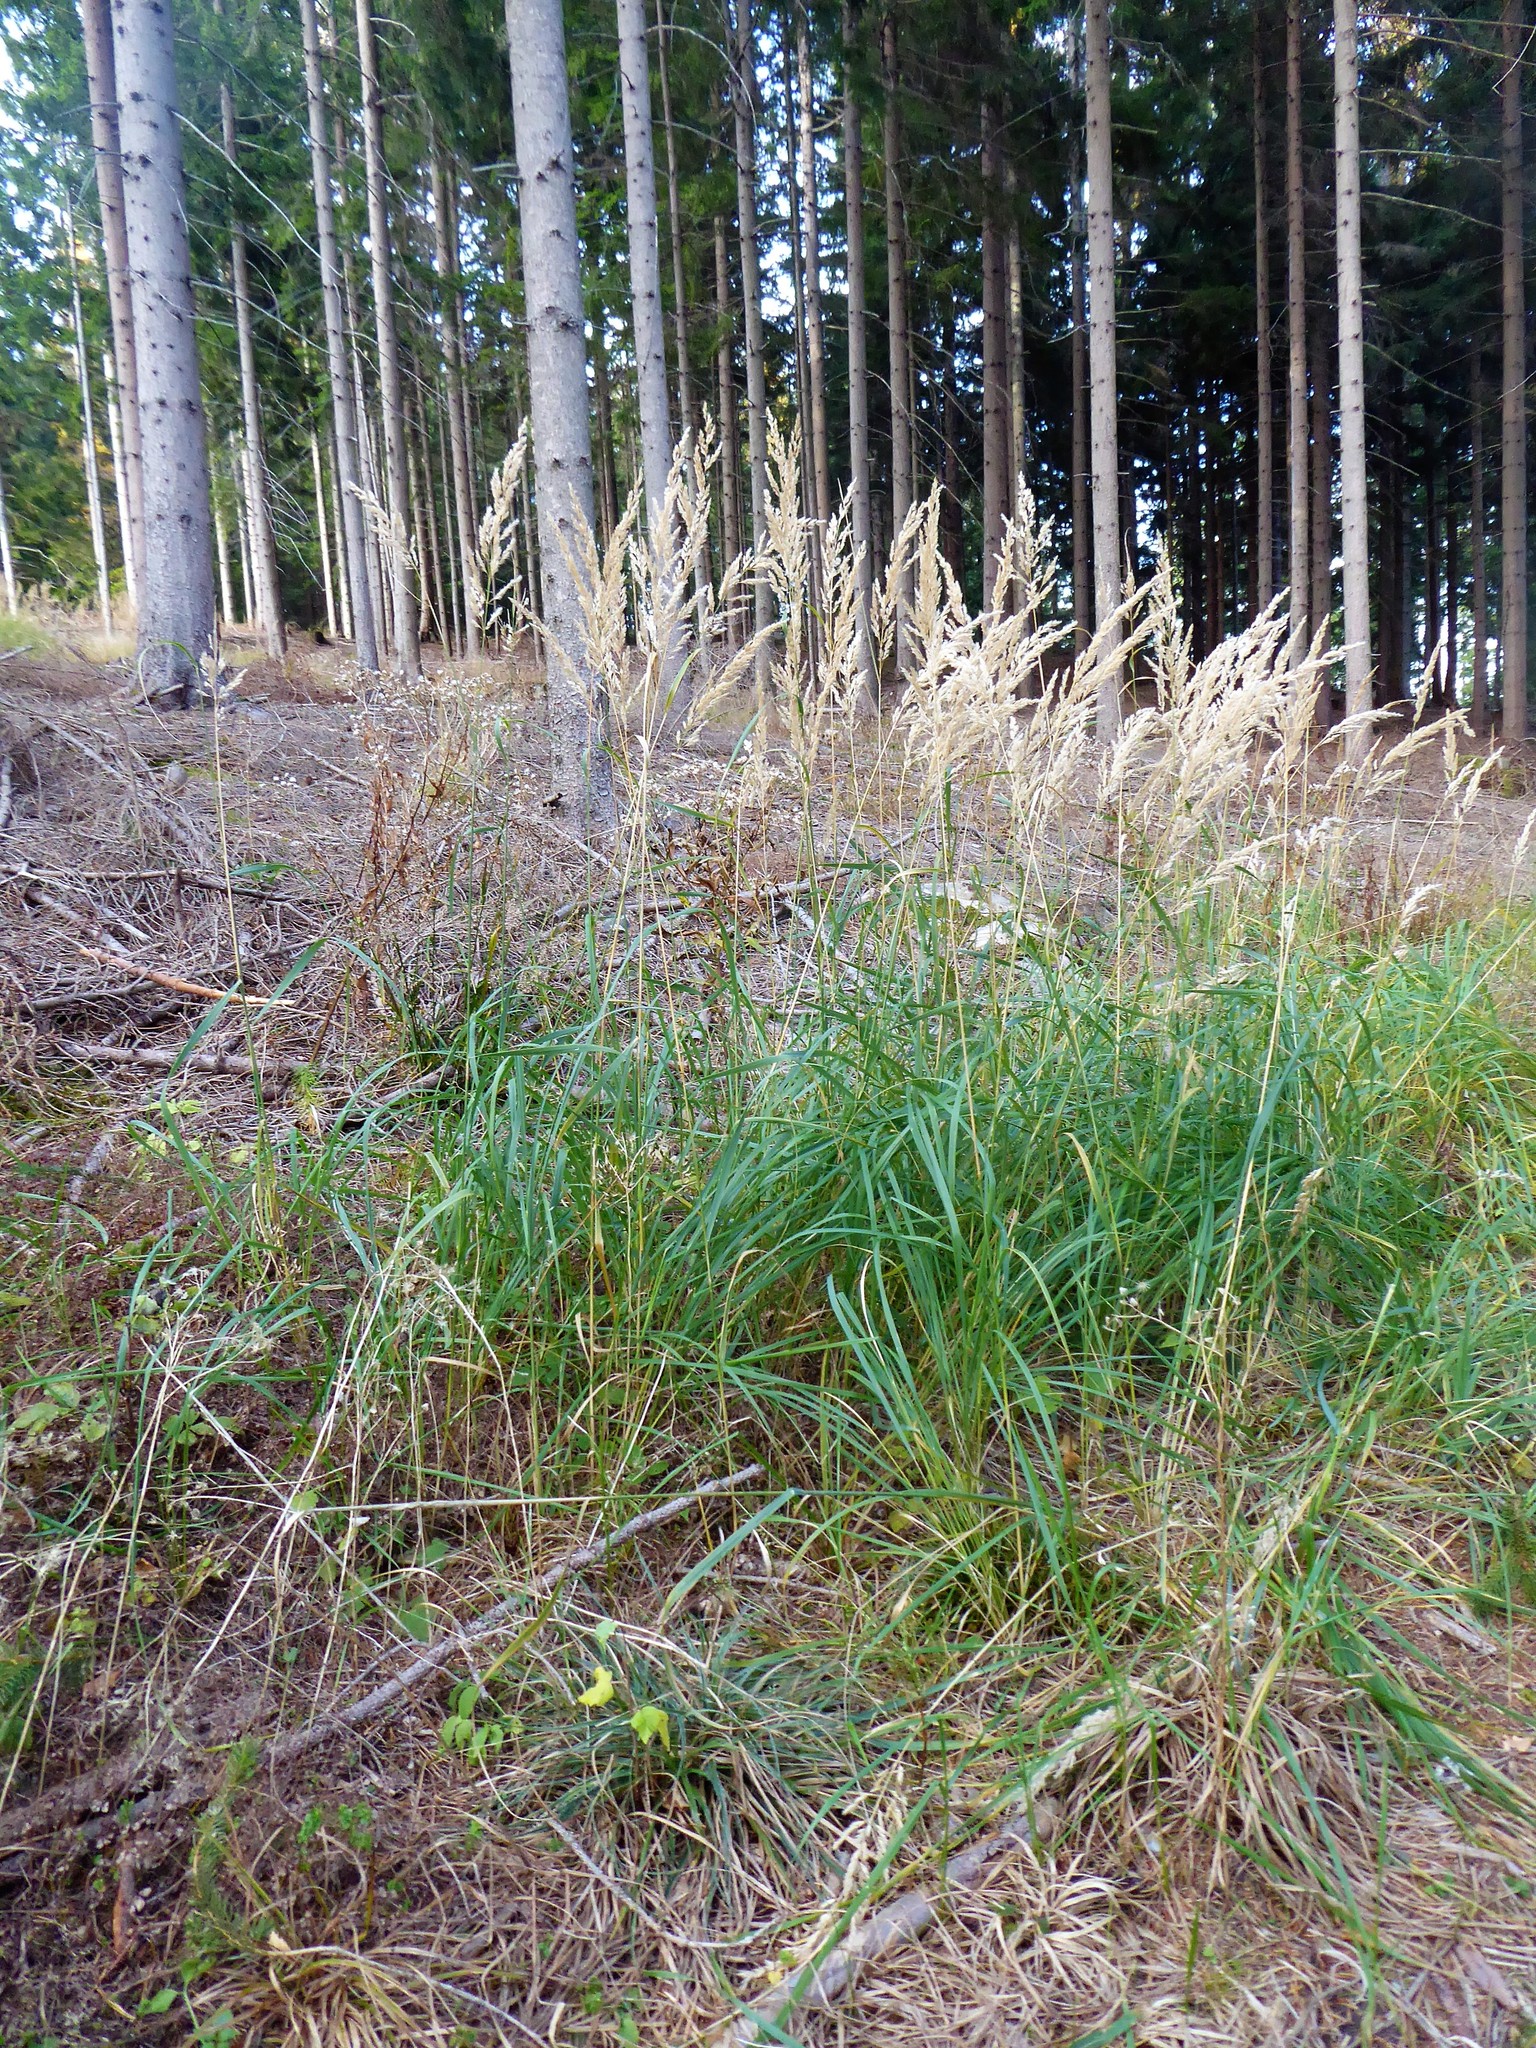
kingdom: Plantae
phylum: Tracheophyta
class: Liliopsida
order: Poales
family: Poaceae
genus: Calamagrostis
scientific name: Calamagrostis epigejos
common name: Wood small-reed
